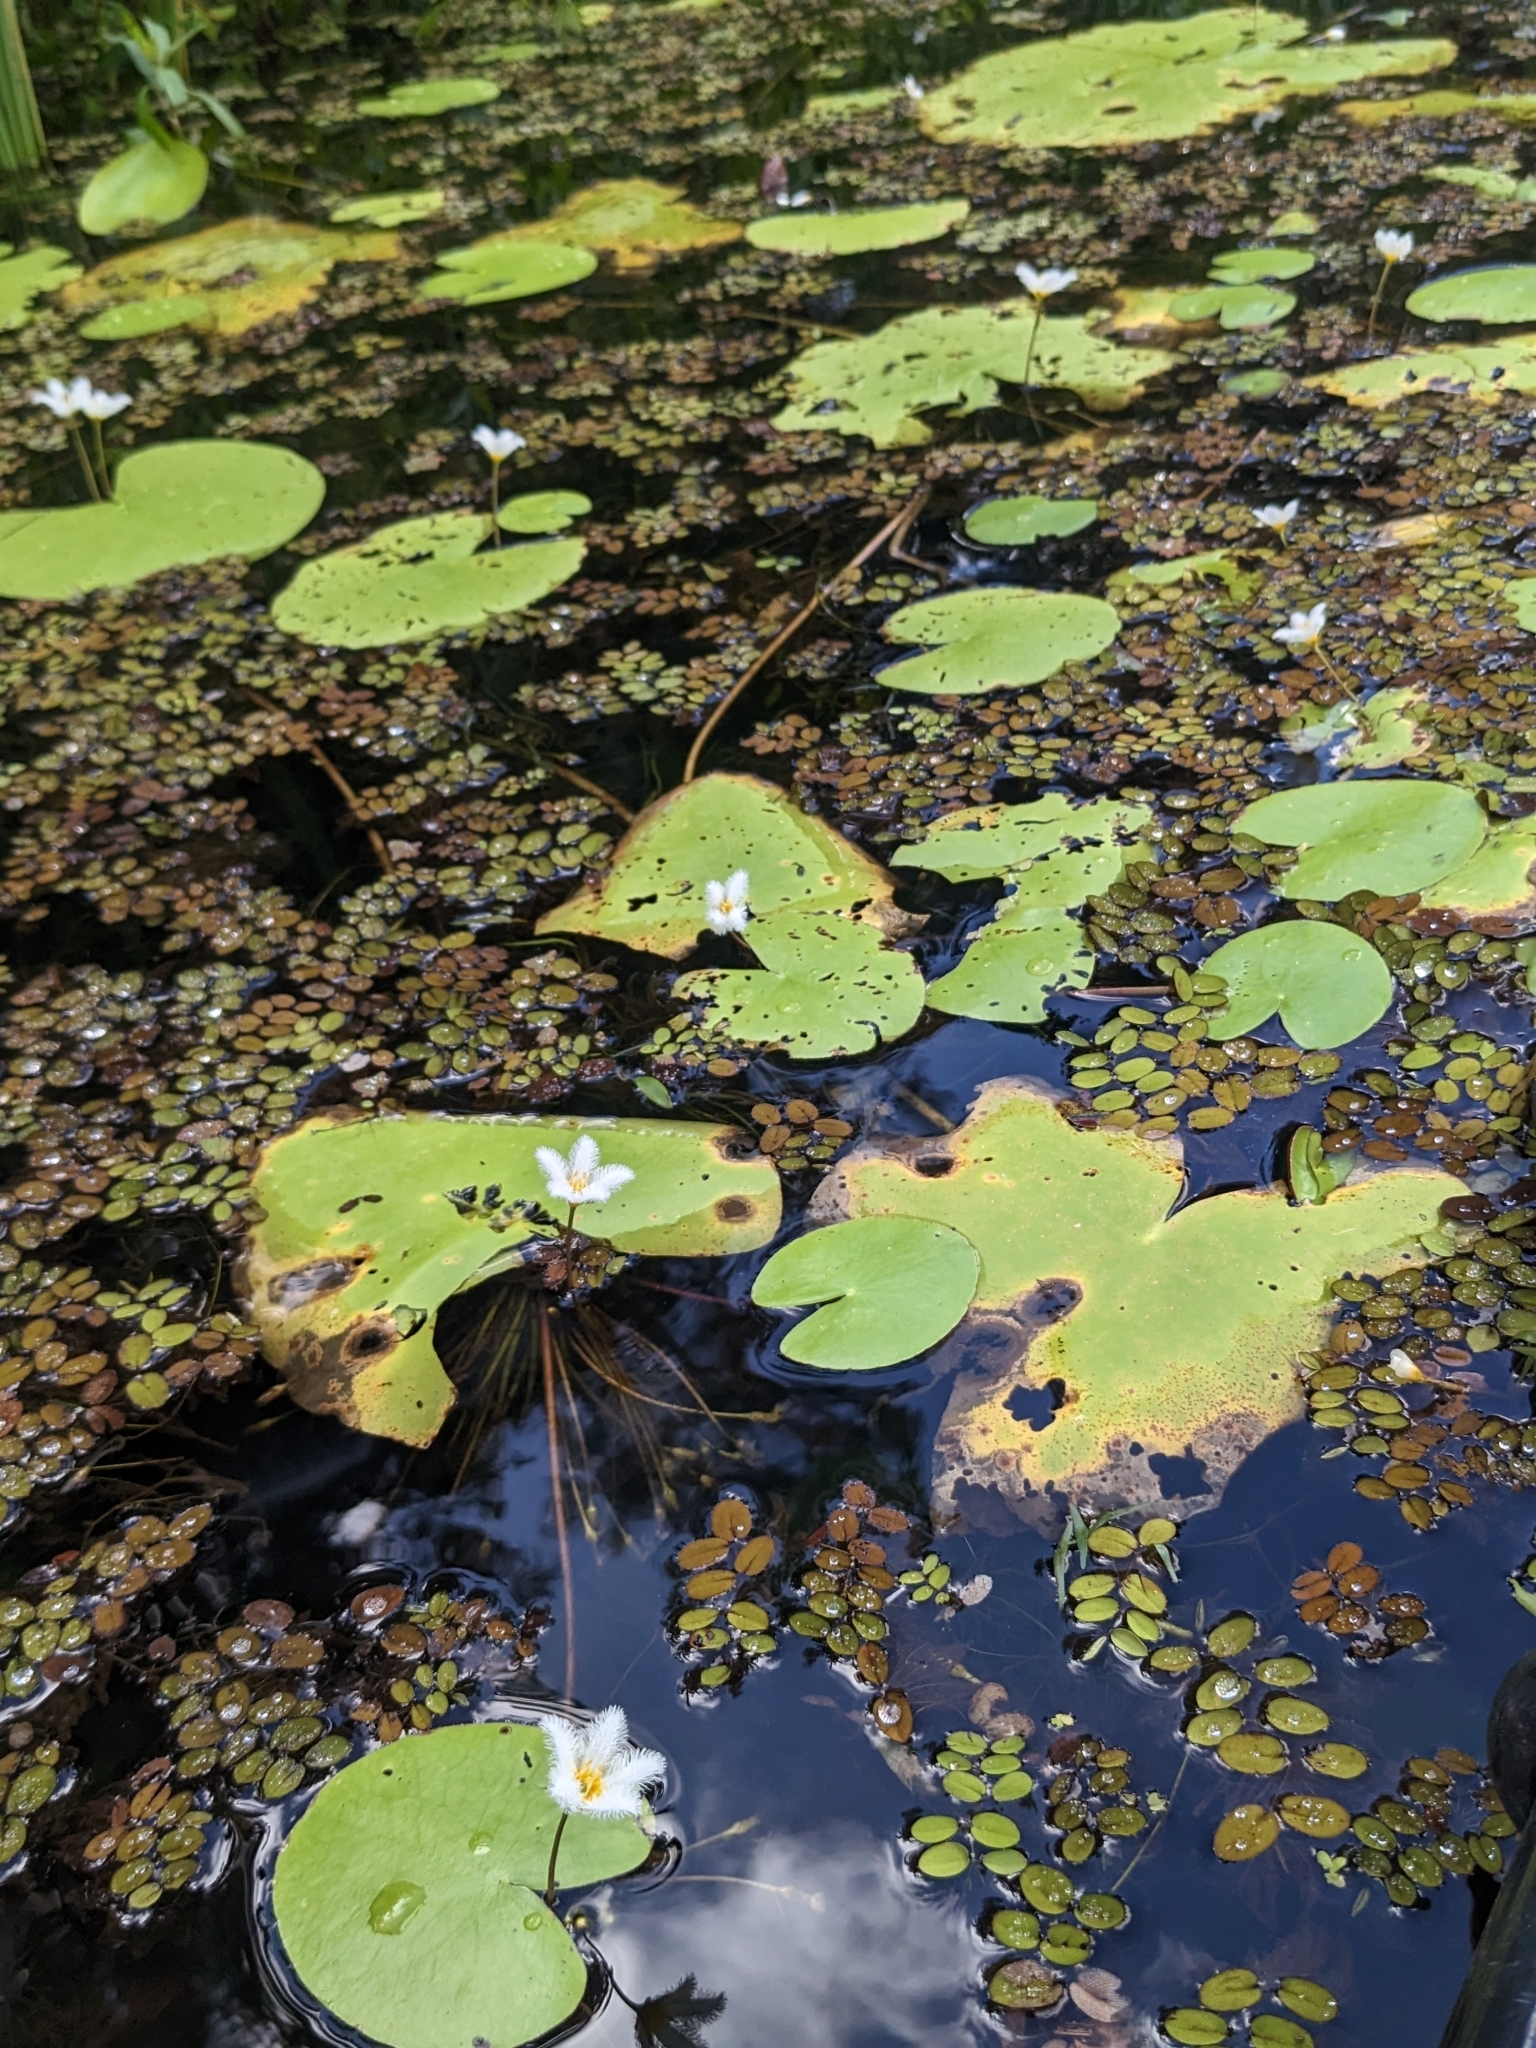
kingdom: Plantae
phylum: Tracheophyta
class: Magnoliopsida
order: Asterales
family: Menyanthaceae
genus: Nymphoides
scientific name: Nymphoides indica
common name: Water-snowflake
